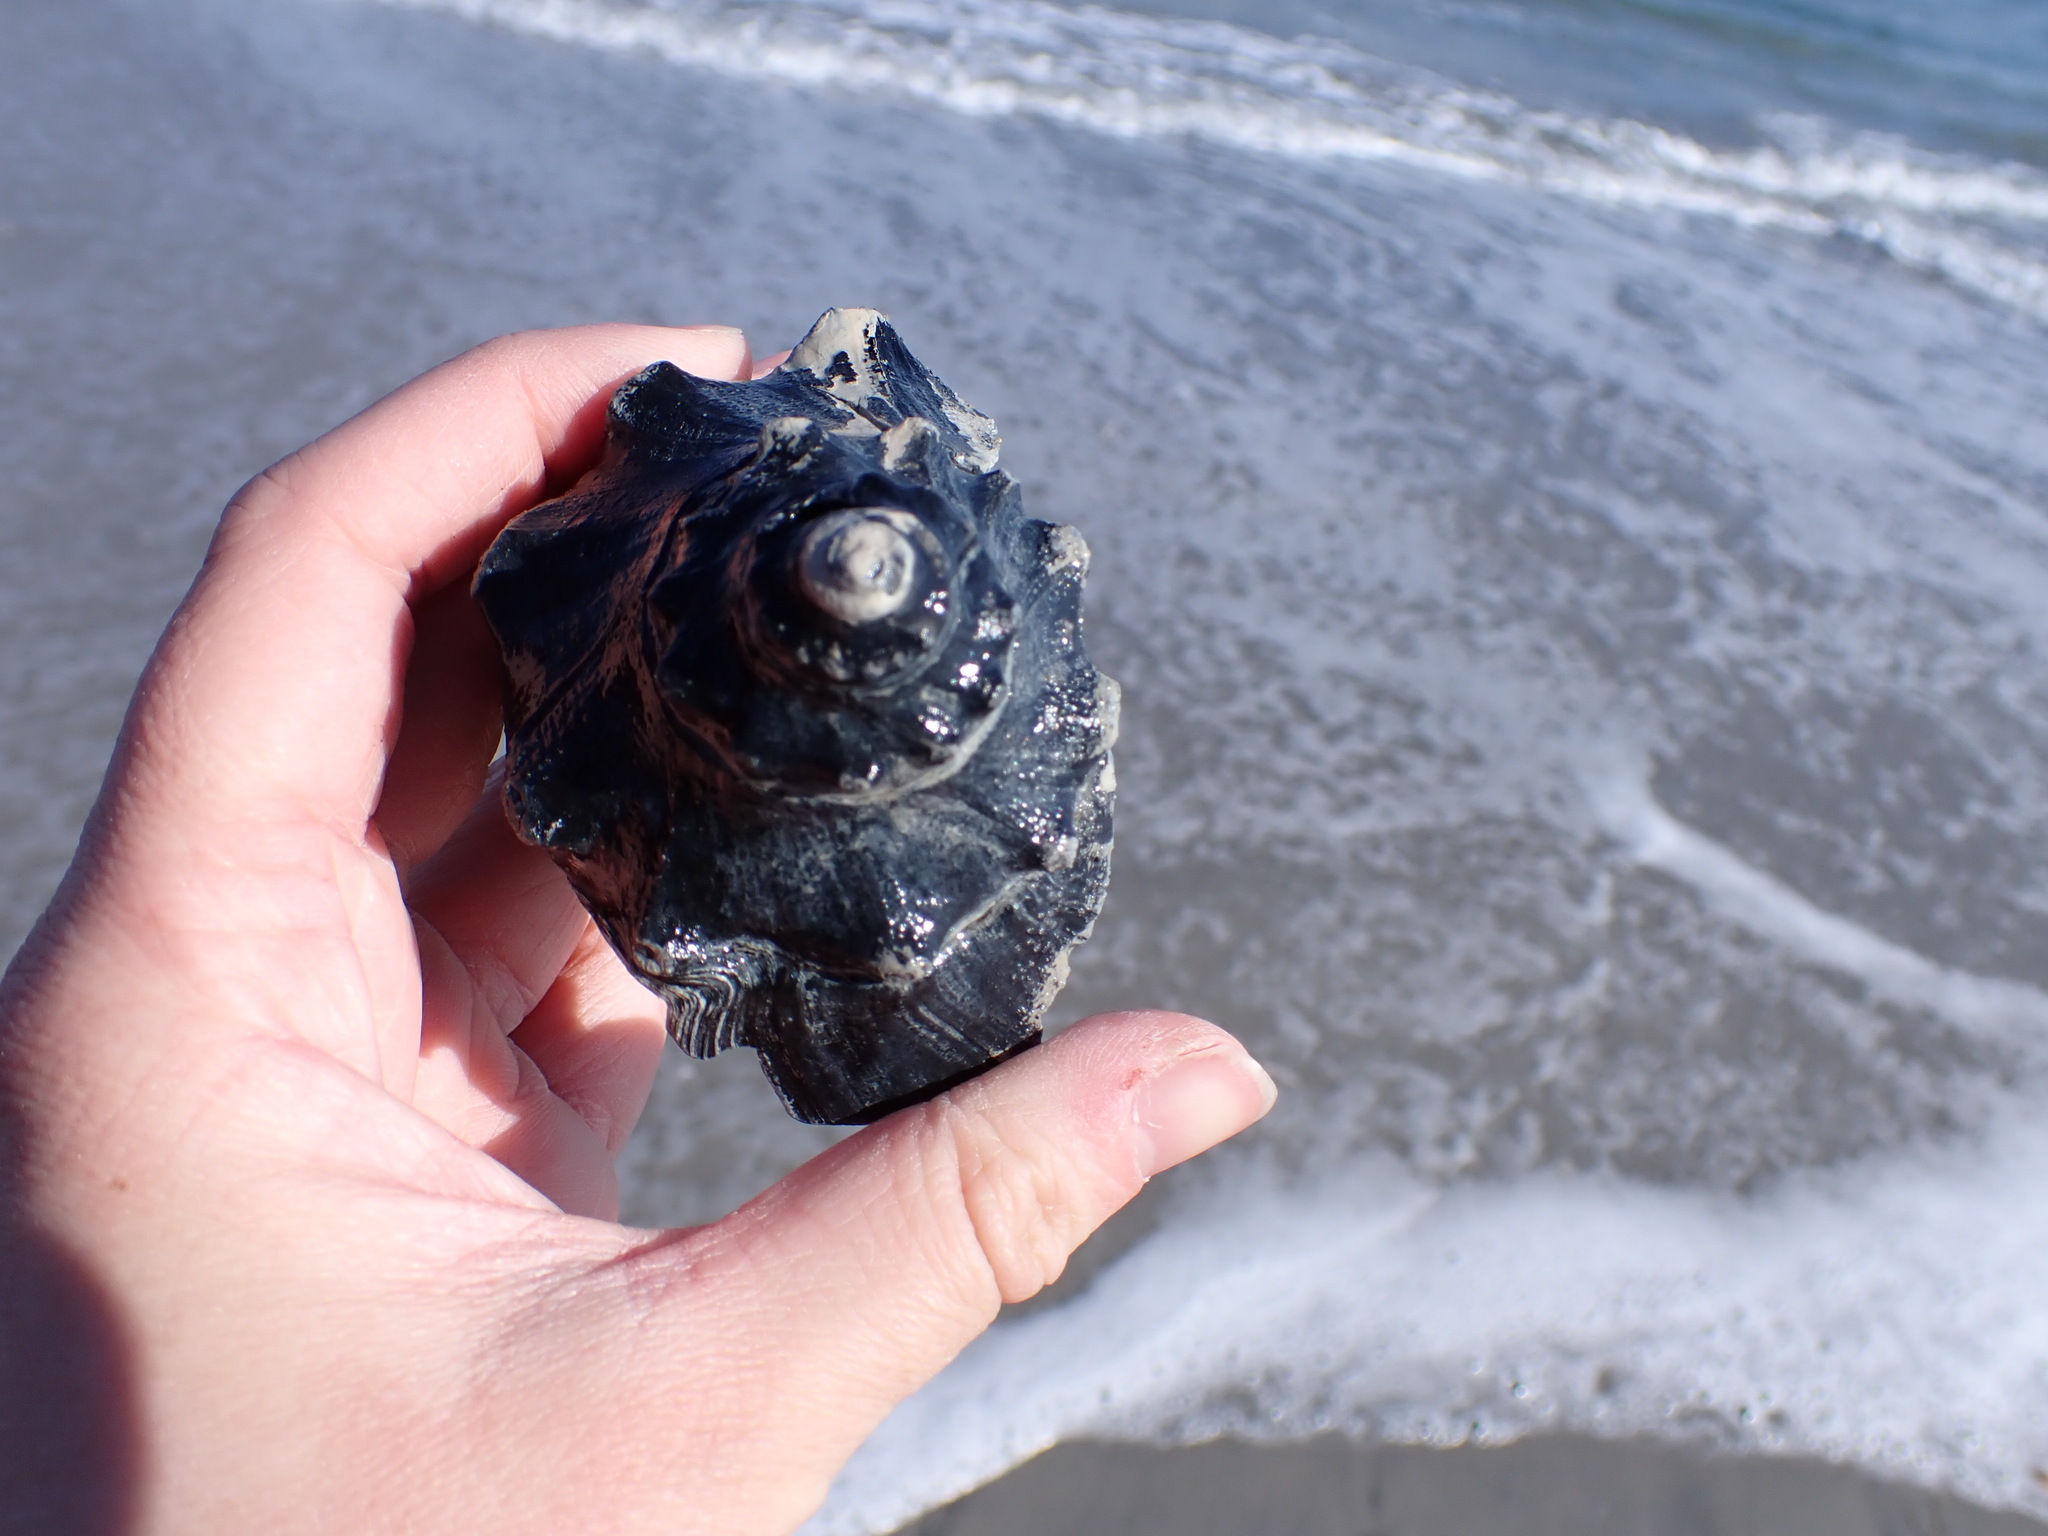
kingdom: Animalia
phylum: Mollusca
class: Gastropoda
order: Neogastropoda
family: Busyconidae
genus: Busycon
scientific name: Busycon carica
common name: Knobbed whelk
